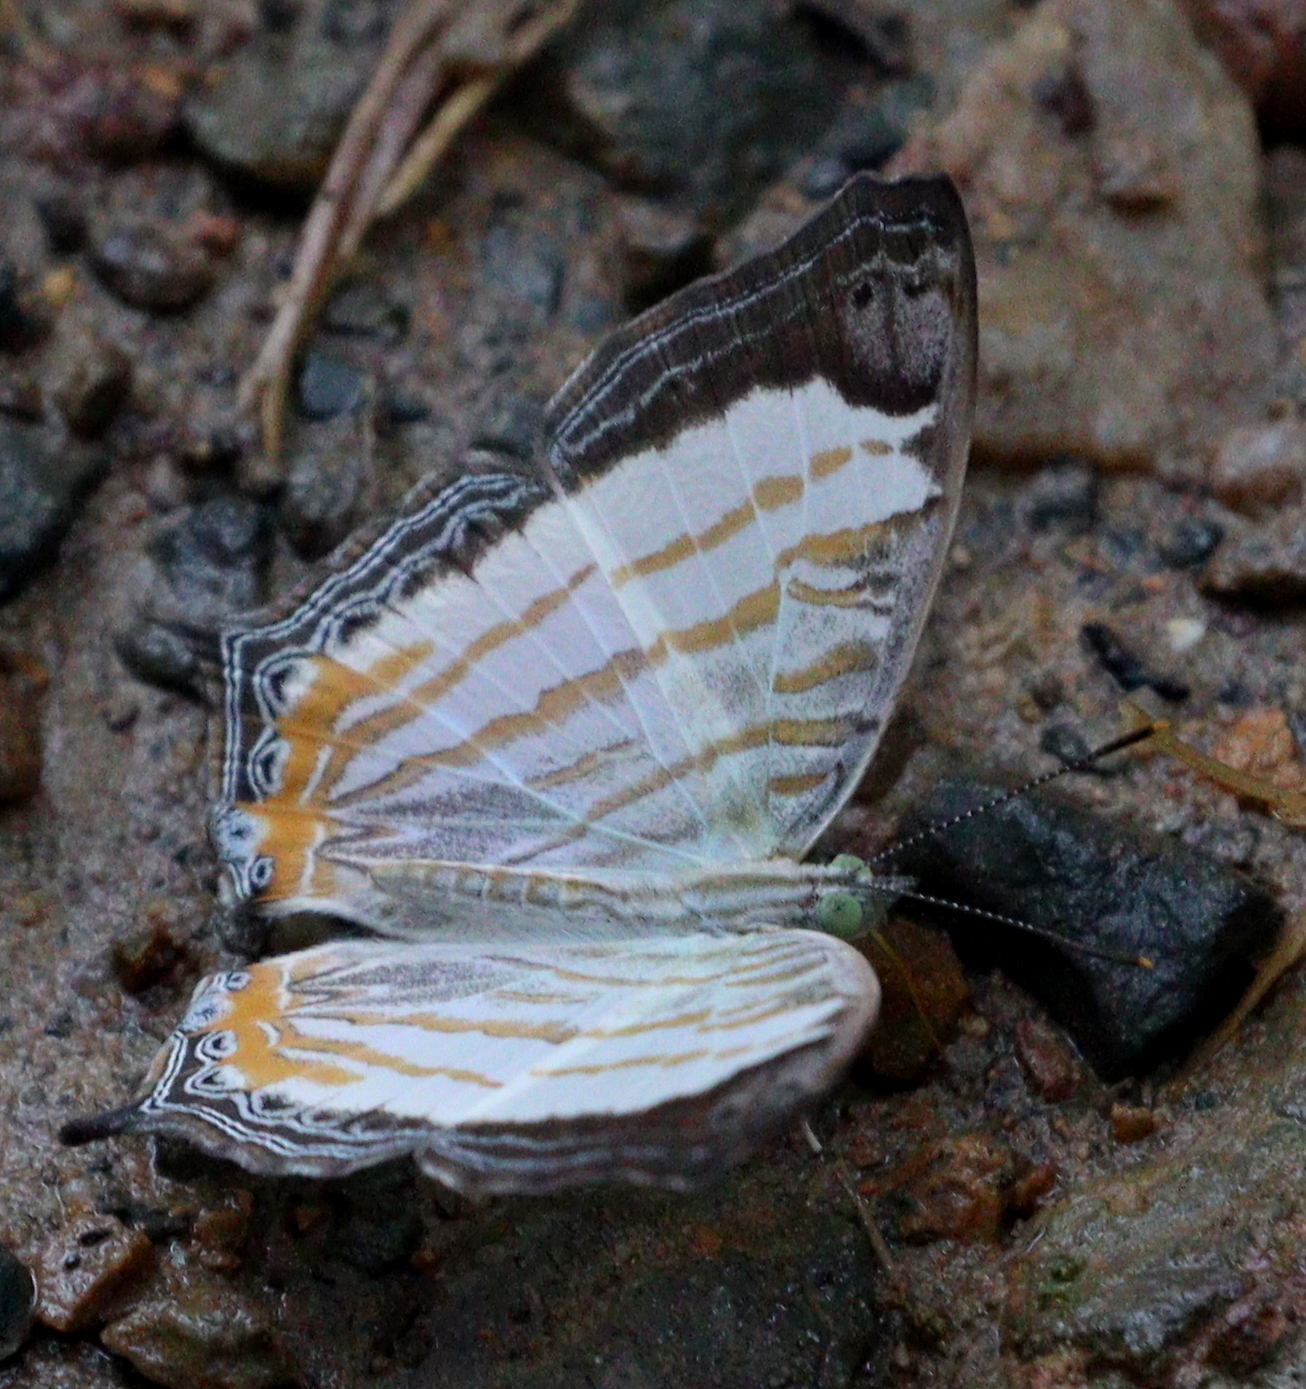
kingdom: Animalia
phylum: Arthropoda
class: Insecta
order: Lepidoptera
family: Nymphalidae
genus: Cyrestis
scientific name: Cyrestis themire
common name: Little mapwing
